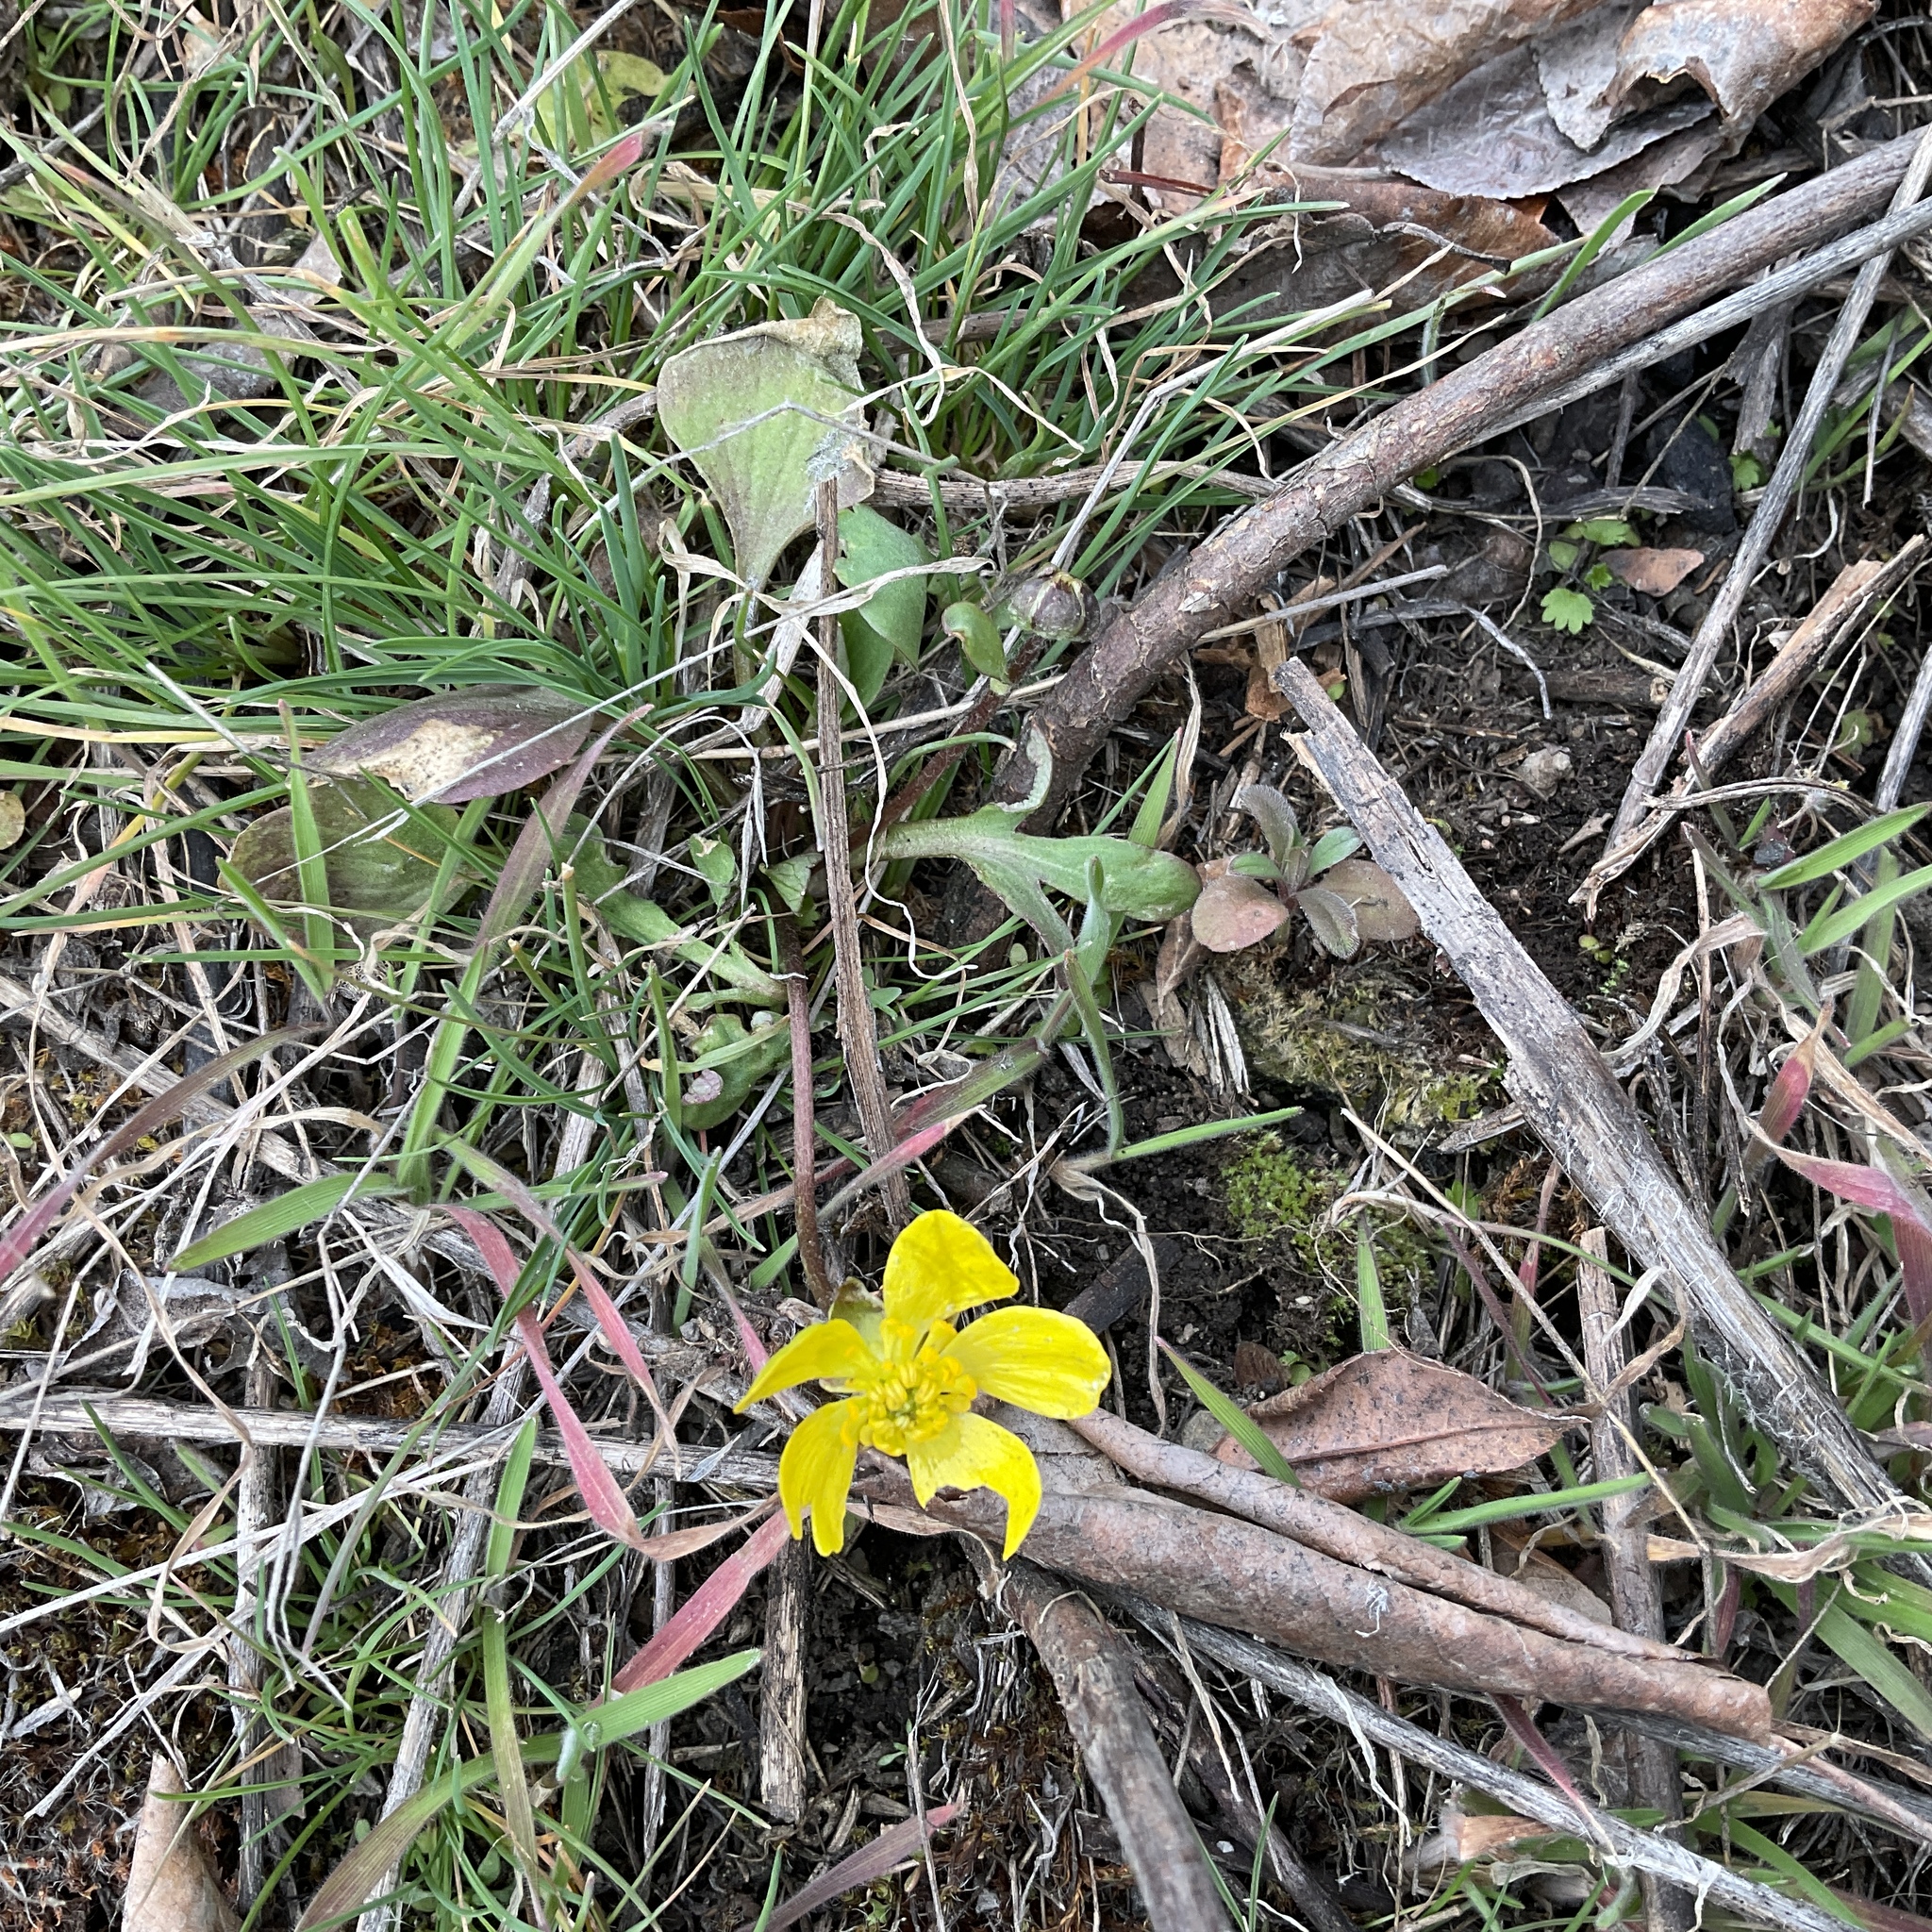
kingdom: Plantae
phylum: Tracheophyta
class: Magnoliopsida
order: Ranunculales
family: Ranunculaceae
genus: Ranunculus
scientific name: Ranunculus glaberrimus
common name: Sagebrush buttercup
